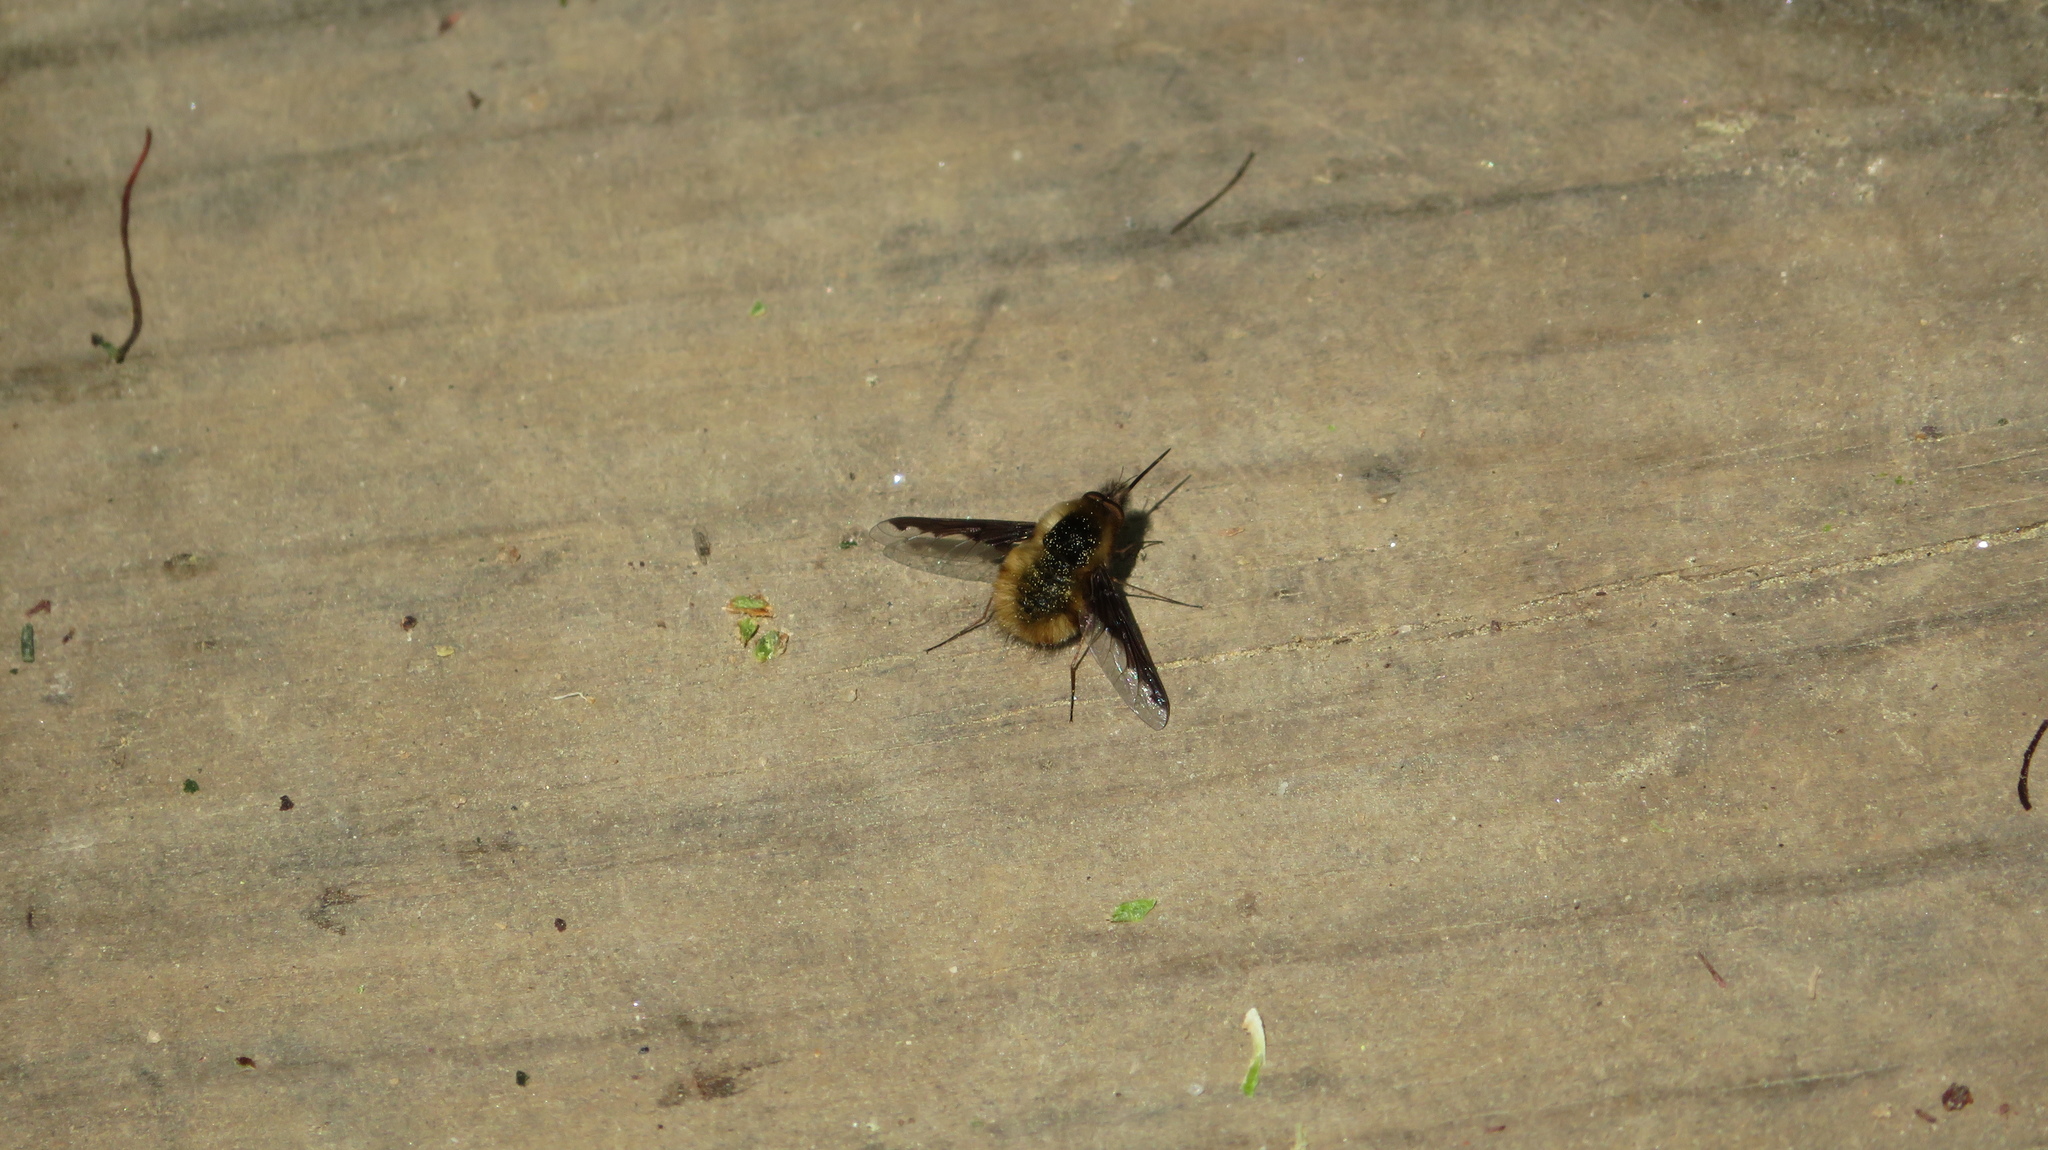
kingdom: Animalia
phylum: Arthropoda
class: Insecta
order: Diptera
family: Bombyliidae
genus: Bombylius
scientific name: Bombylius major
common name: Bee fly
